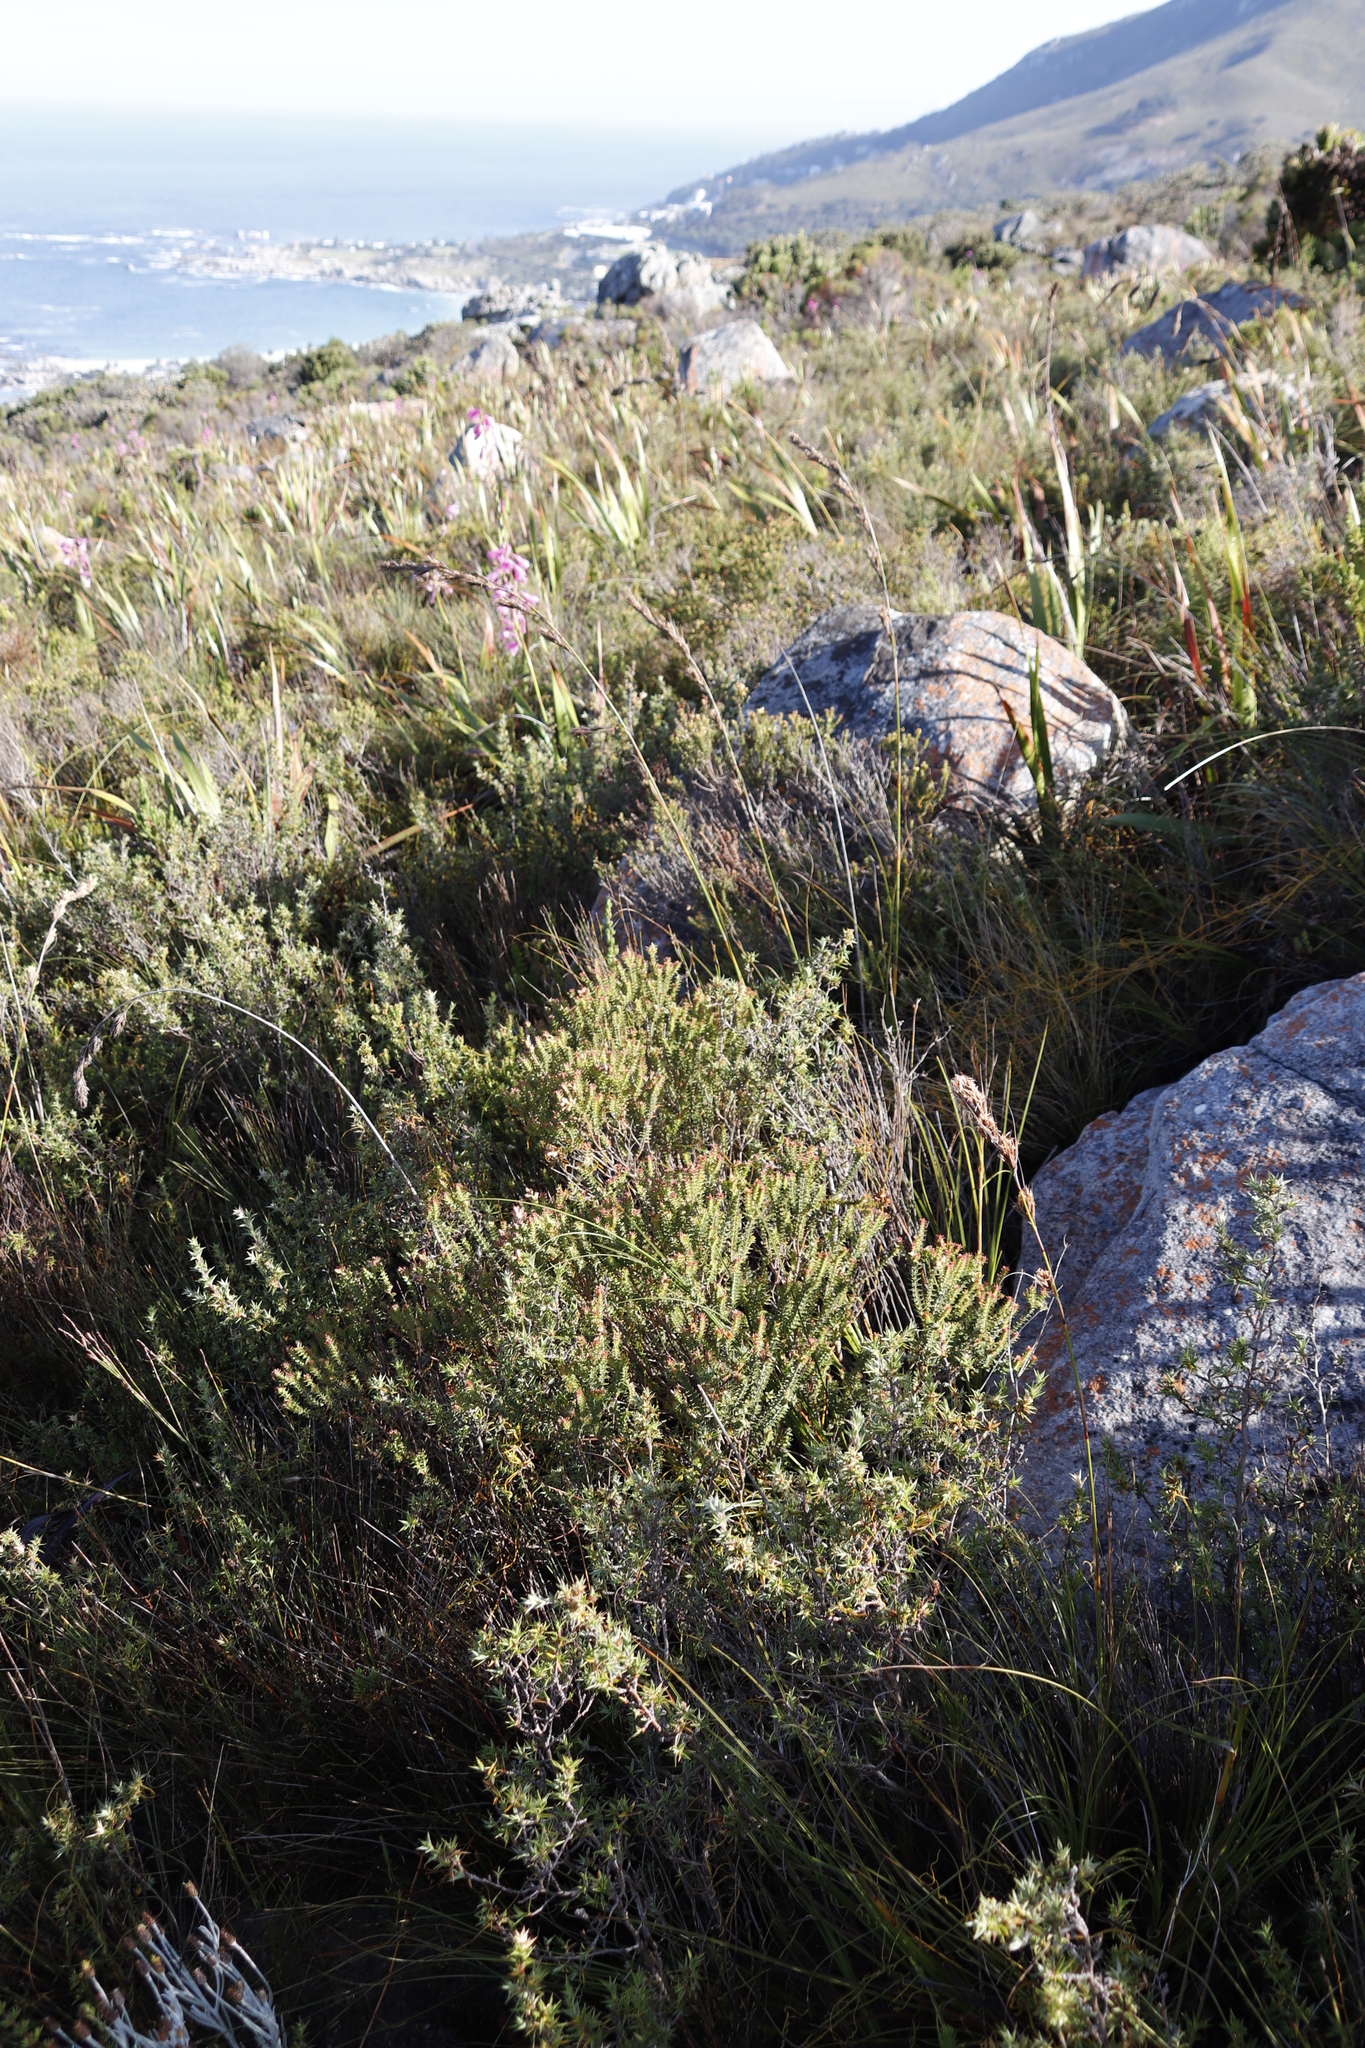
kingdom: Plantae
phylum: Tracheophyta
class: Liliopsida
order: Poales
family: Cyperaceae
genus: Tetraria
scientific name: Tetraria bromoides
